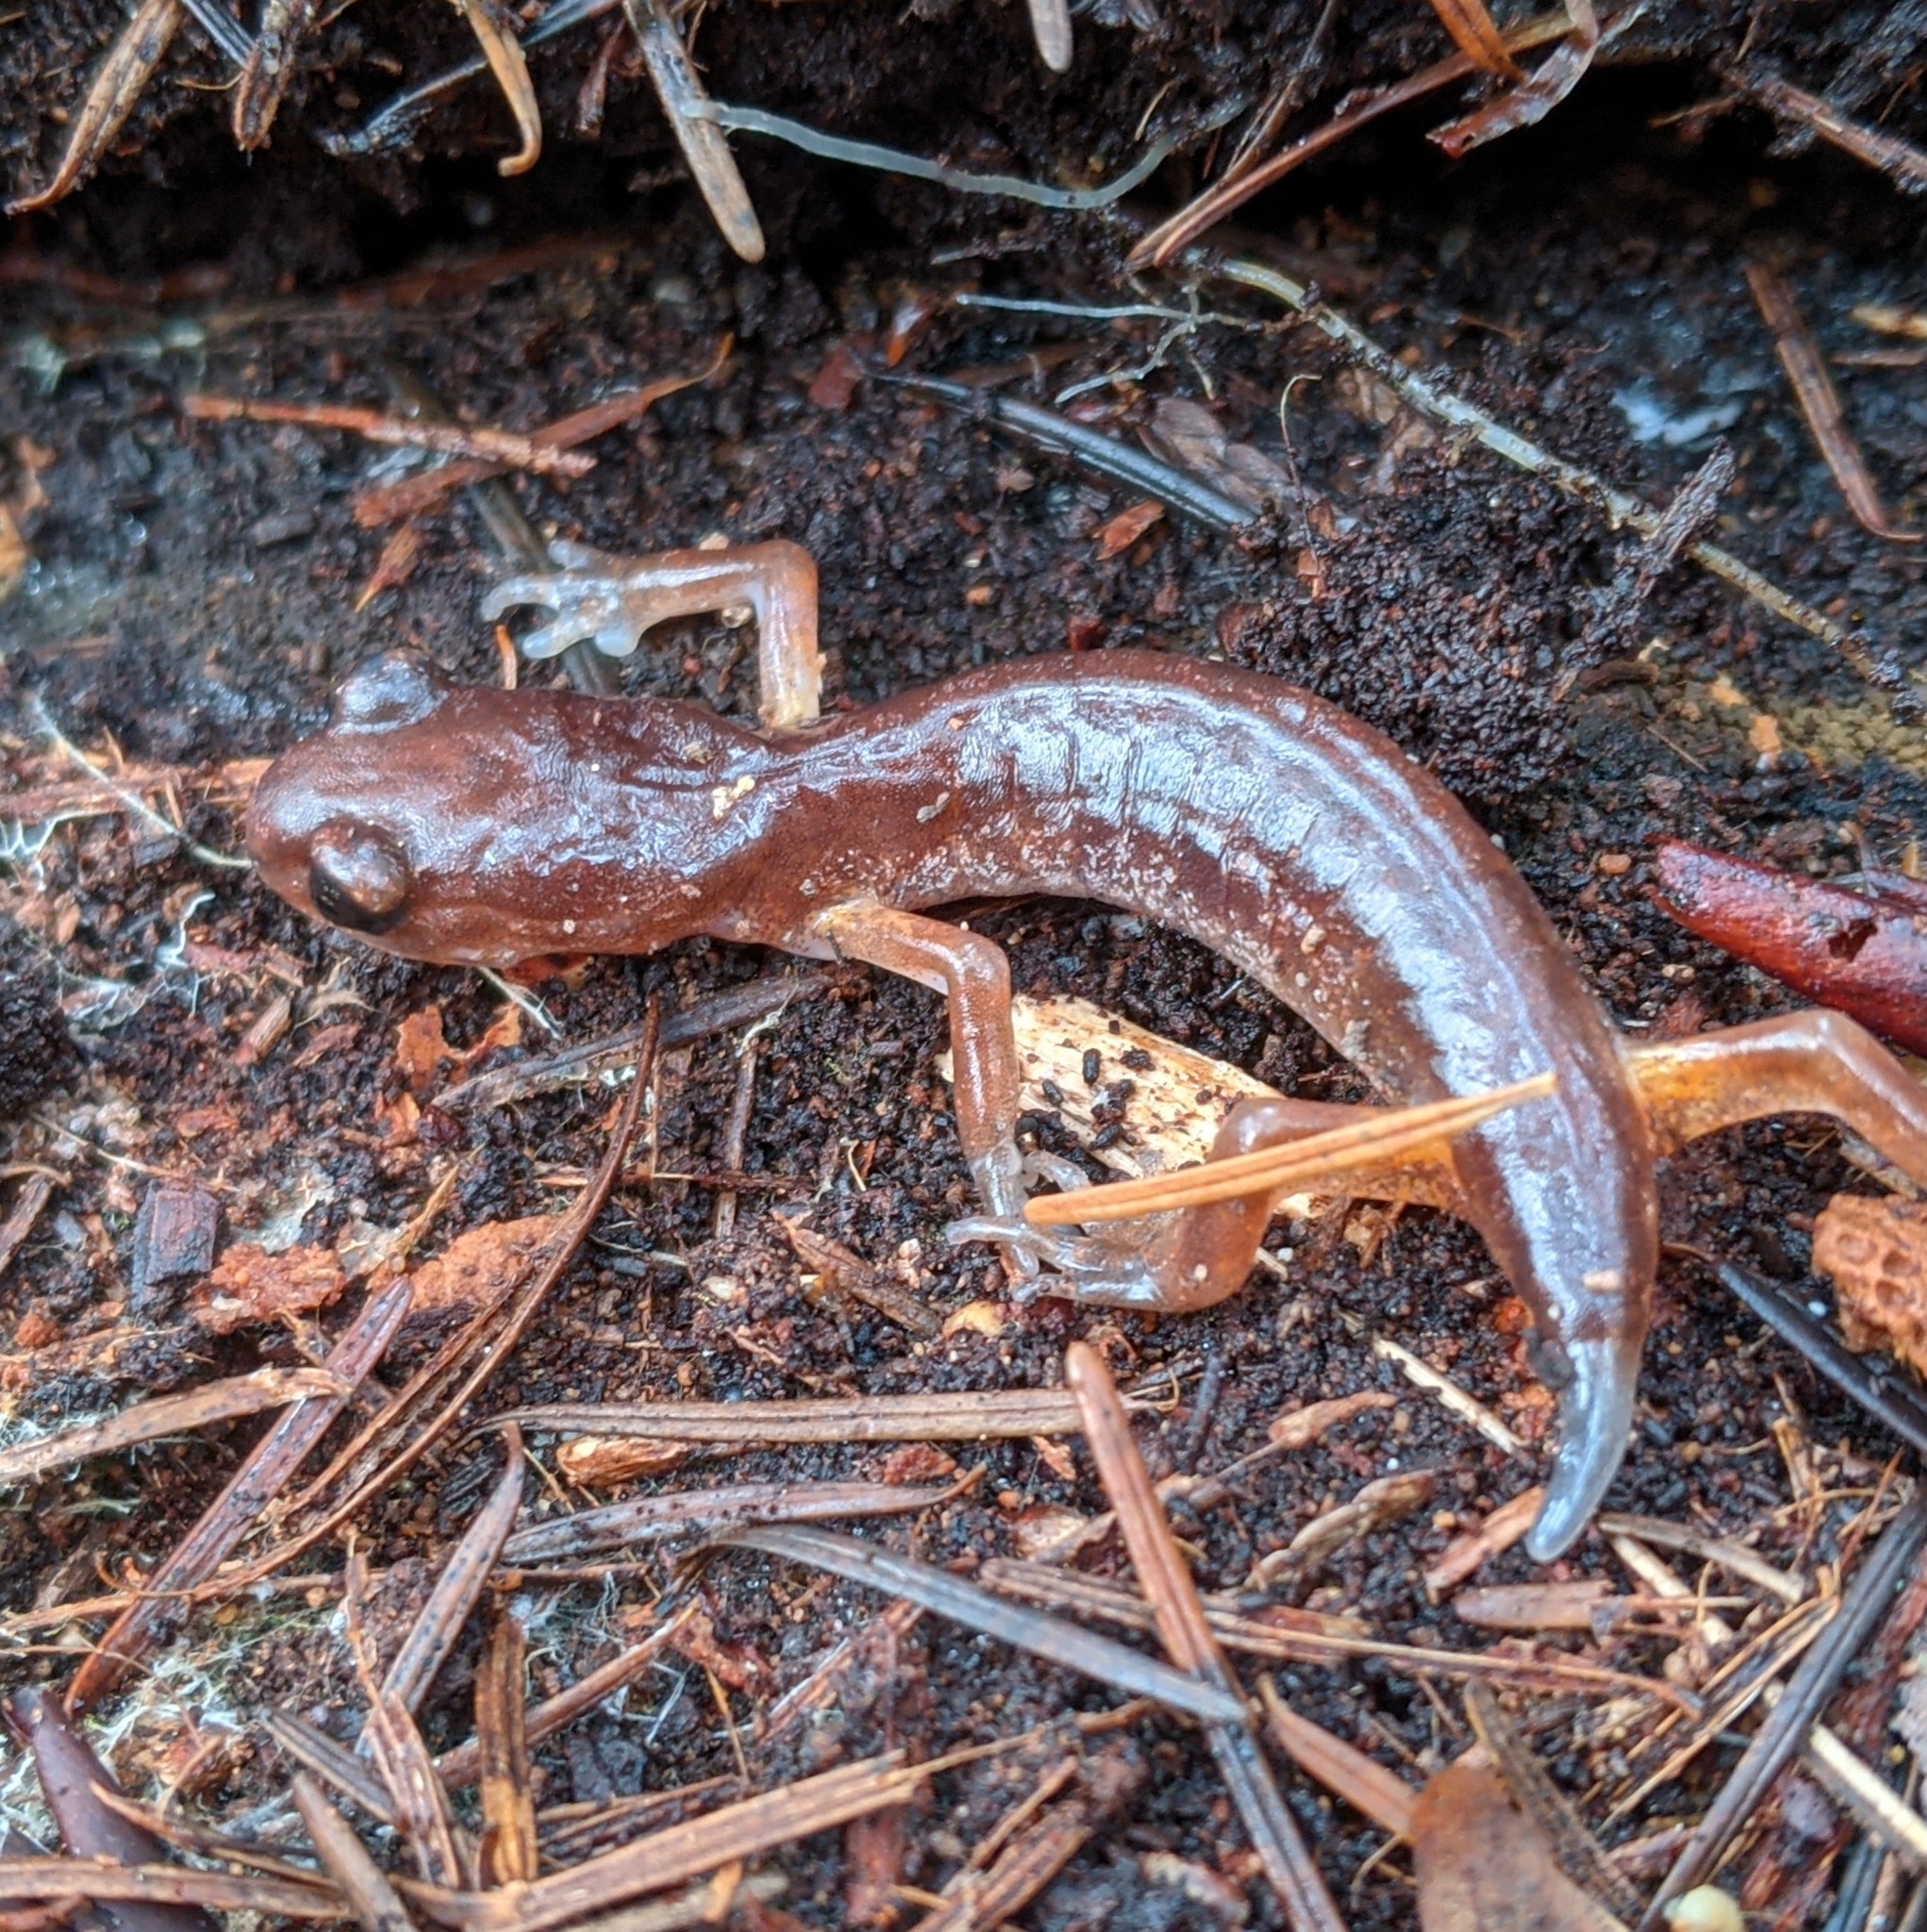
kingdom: Animalia
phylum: Chordata
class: Amphibia
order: Caudata
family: Plethodontidae
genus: Ensatina
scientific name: Ensatina eschscholtzii
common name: Ensatina
